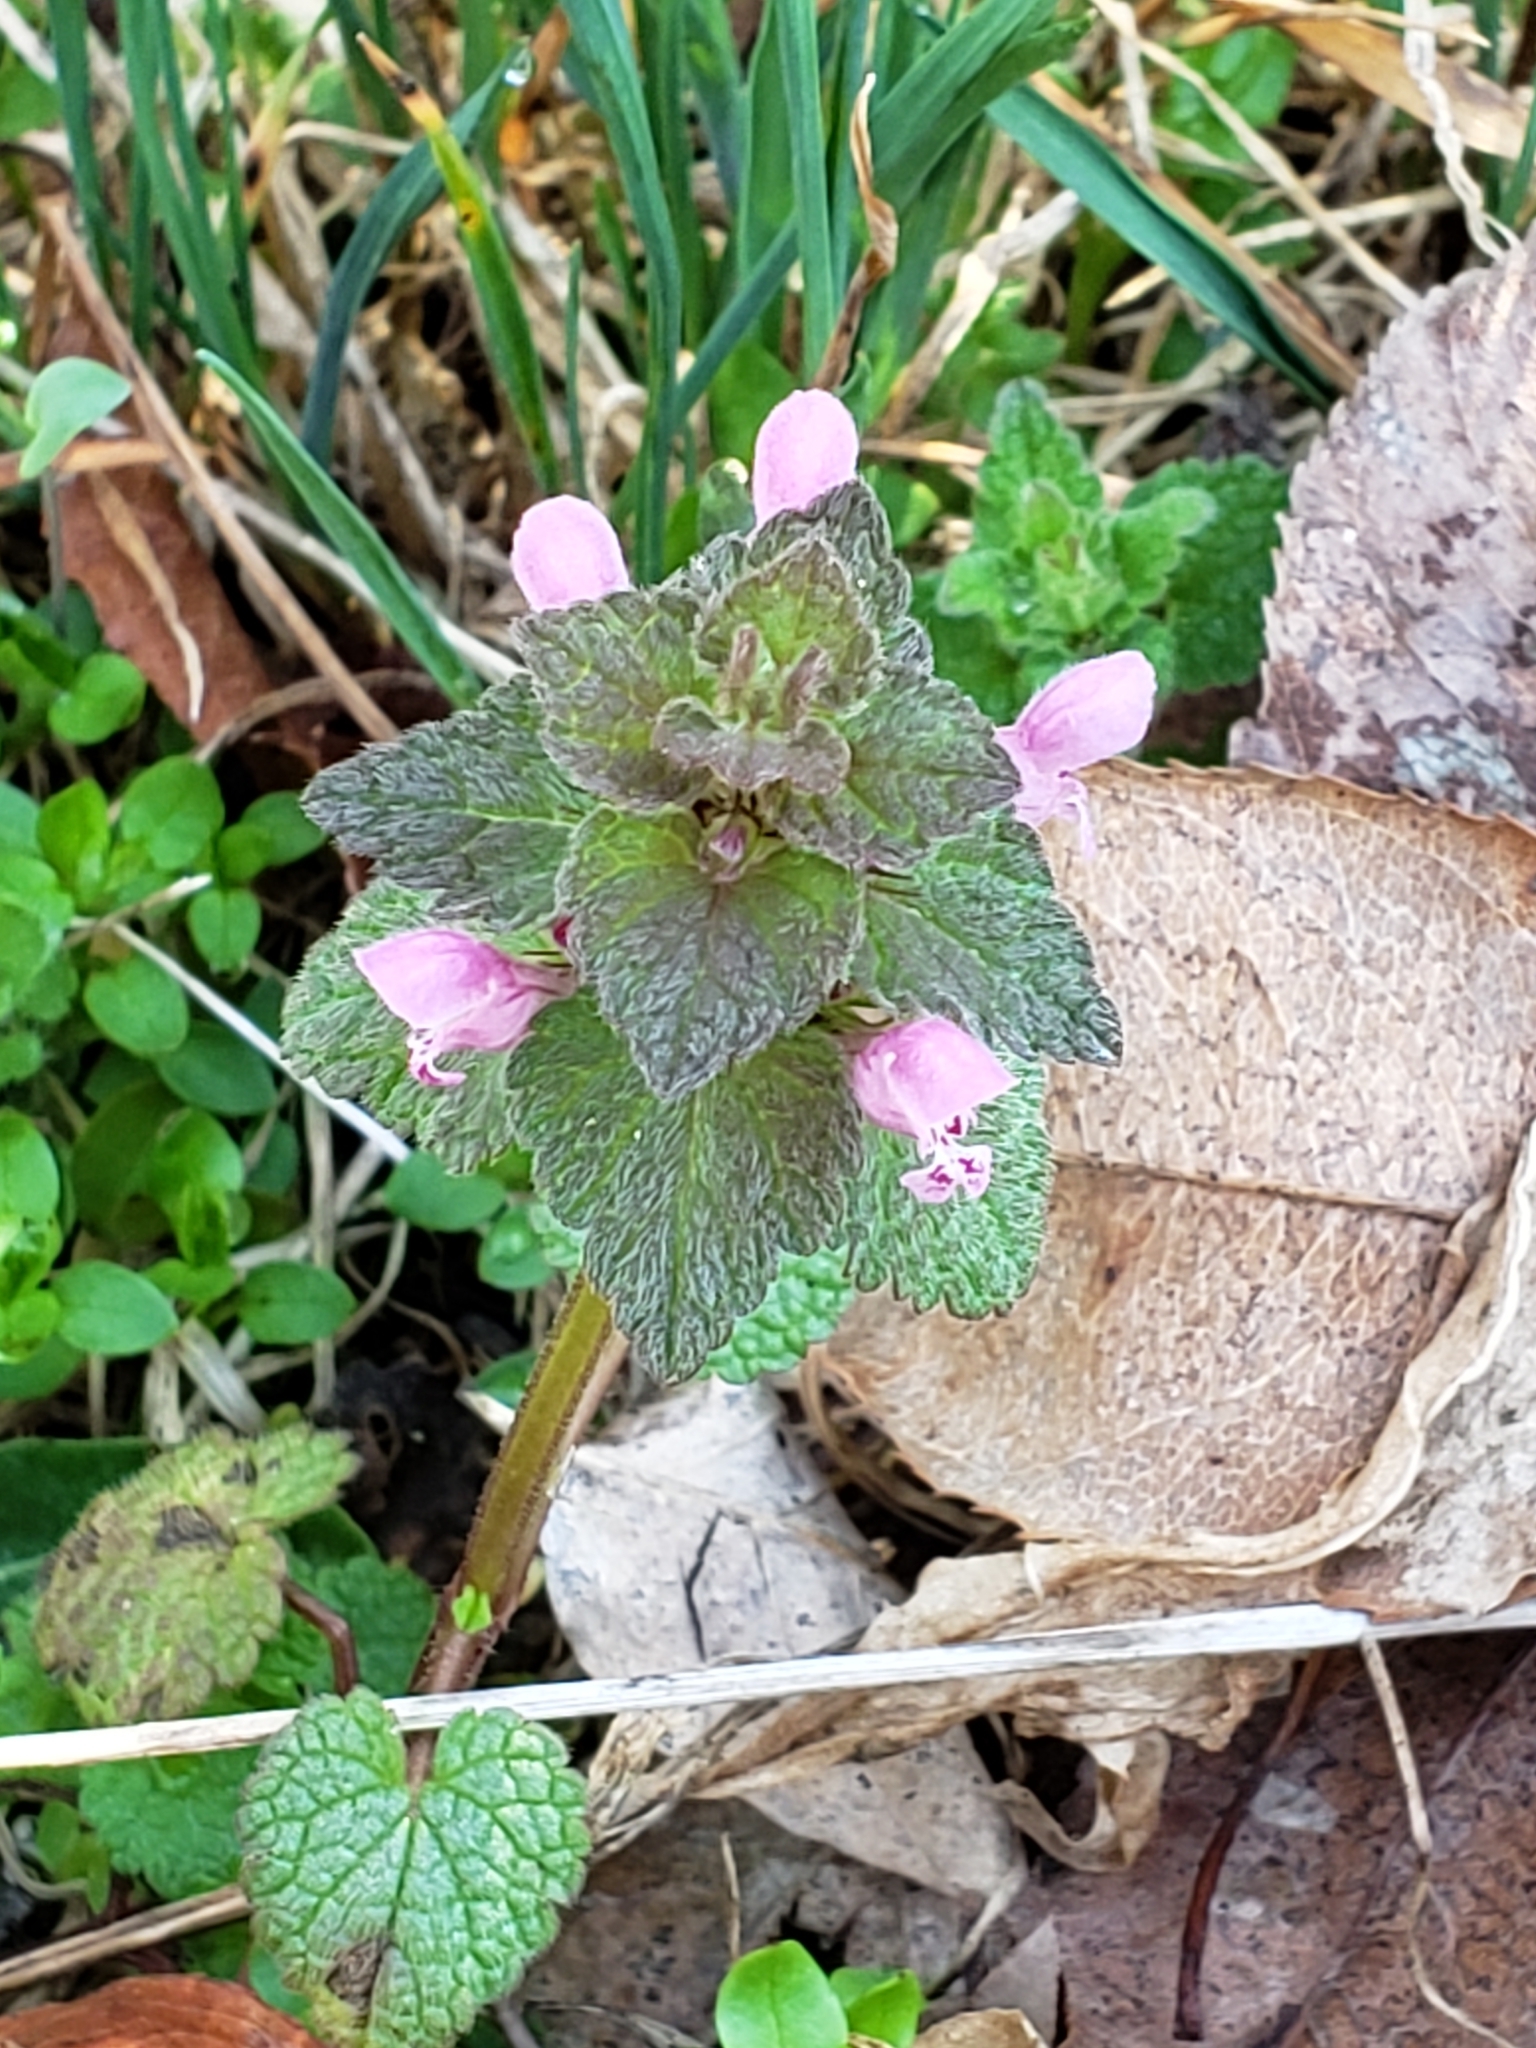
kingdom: Plantae
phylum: Tracheophyta
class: Magnoliopsida
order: Lamiales
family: Lamiaceae
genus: Lamium
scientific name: Lamium purpureum
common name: Red dead-nettle
